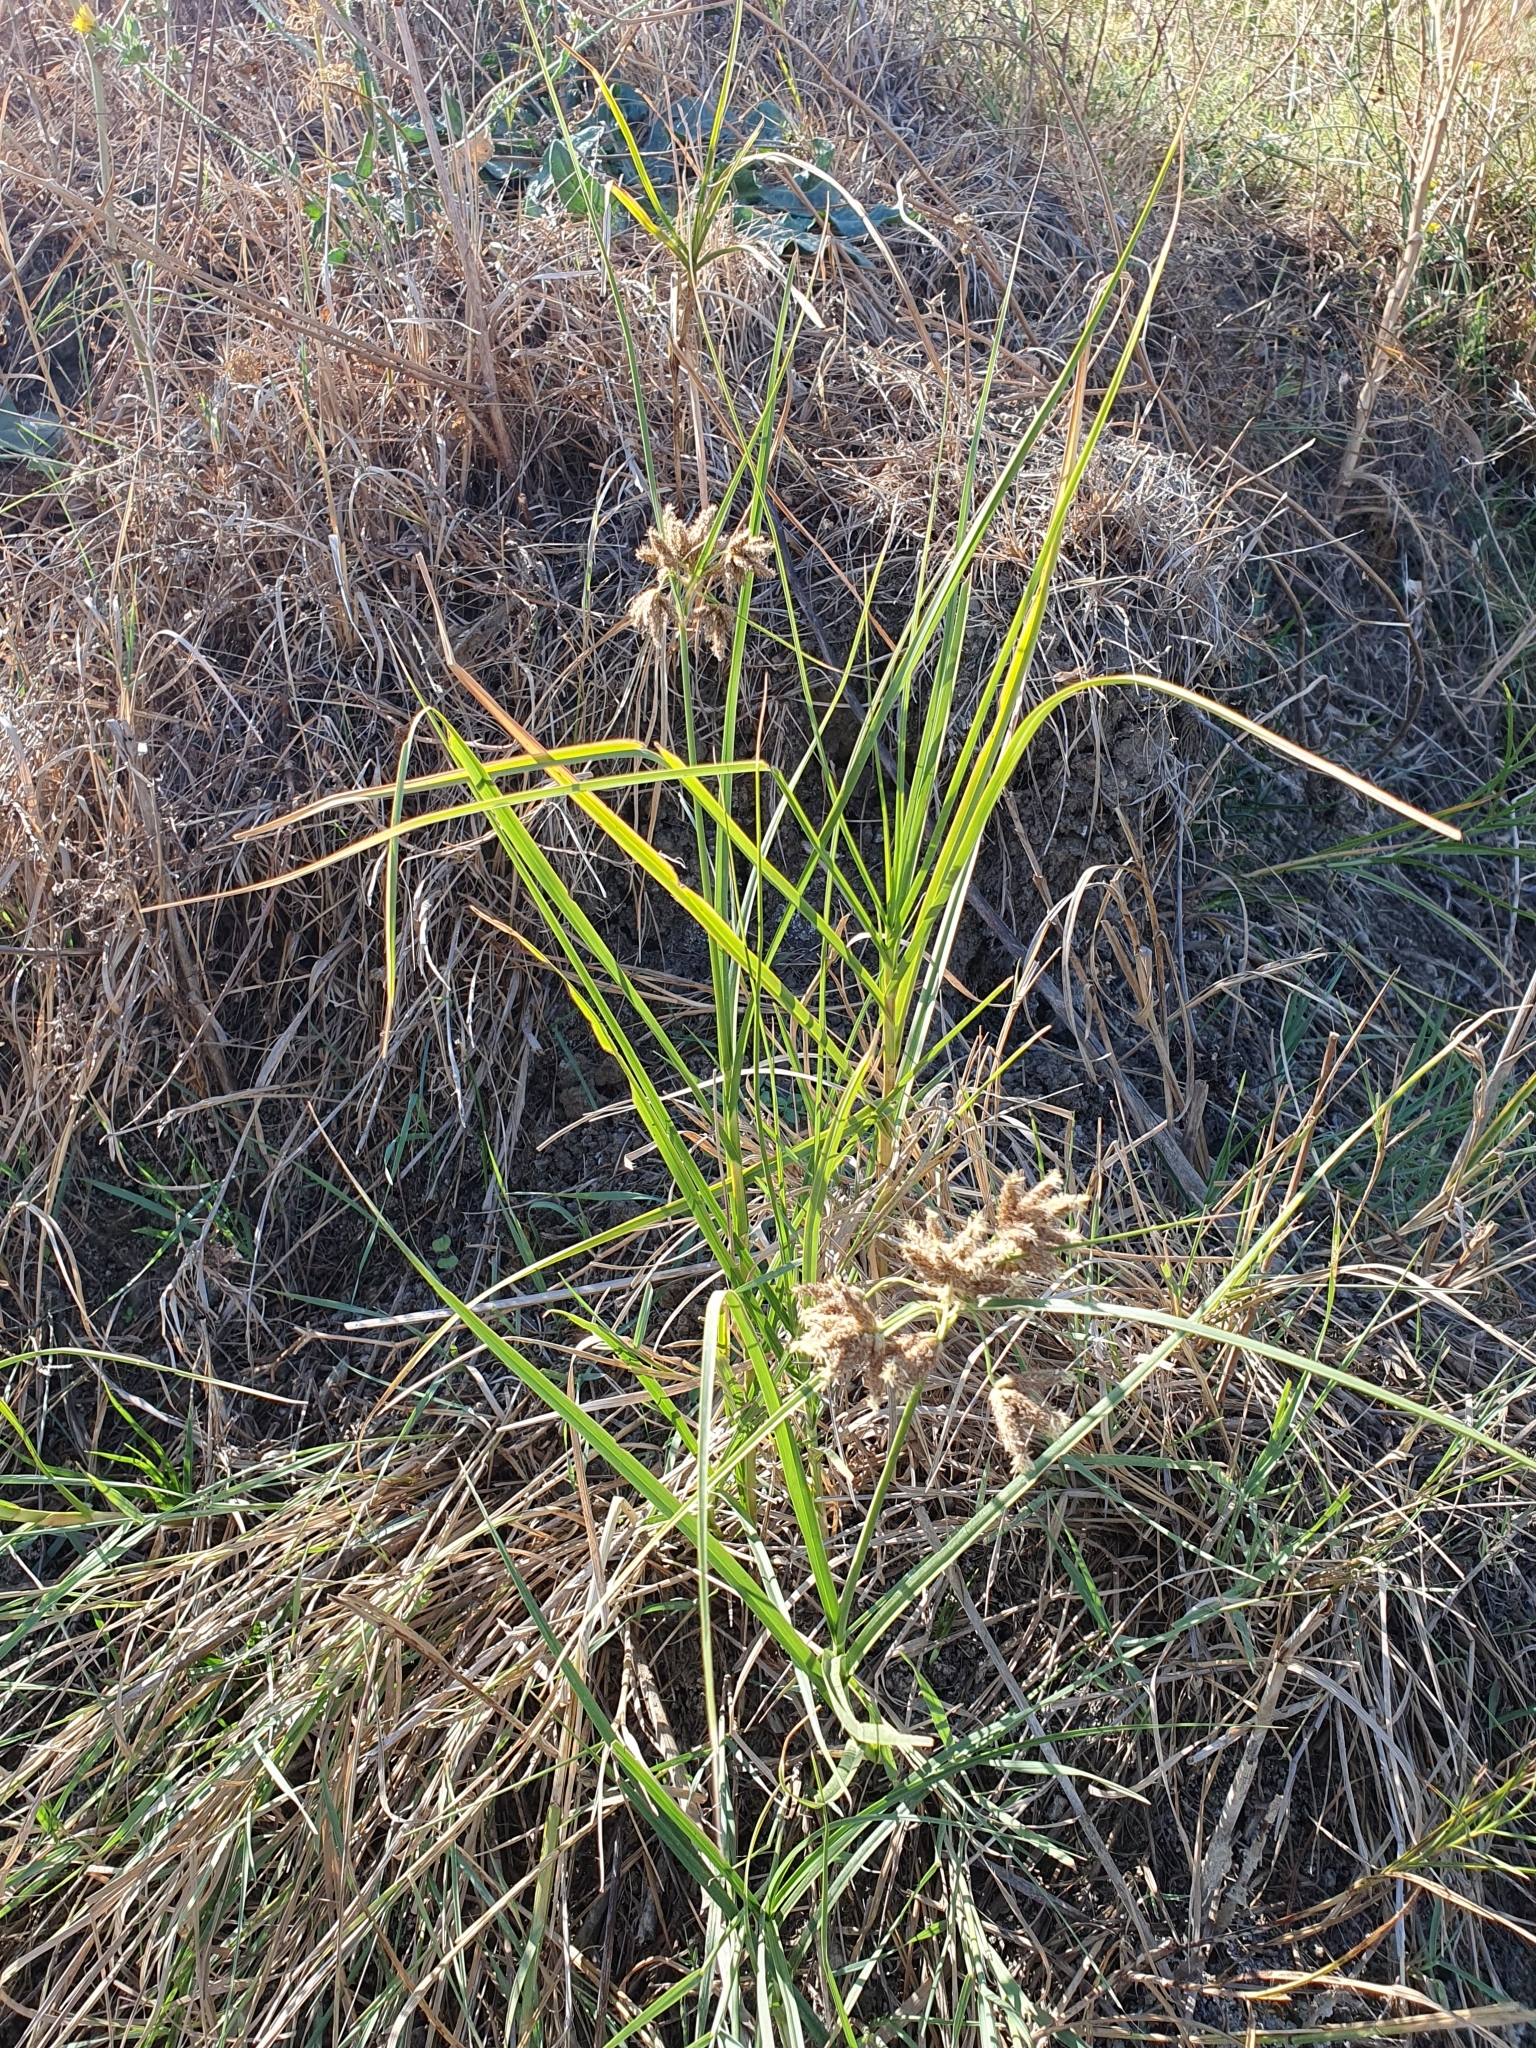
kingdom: Plantae
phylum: Tracheophyta
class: Liliopsida
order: Poales
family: Cyperaceae
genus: Bolboschoenus
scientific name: Bolboschoenus glaucus
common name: Tuberous bulrush
